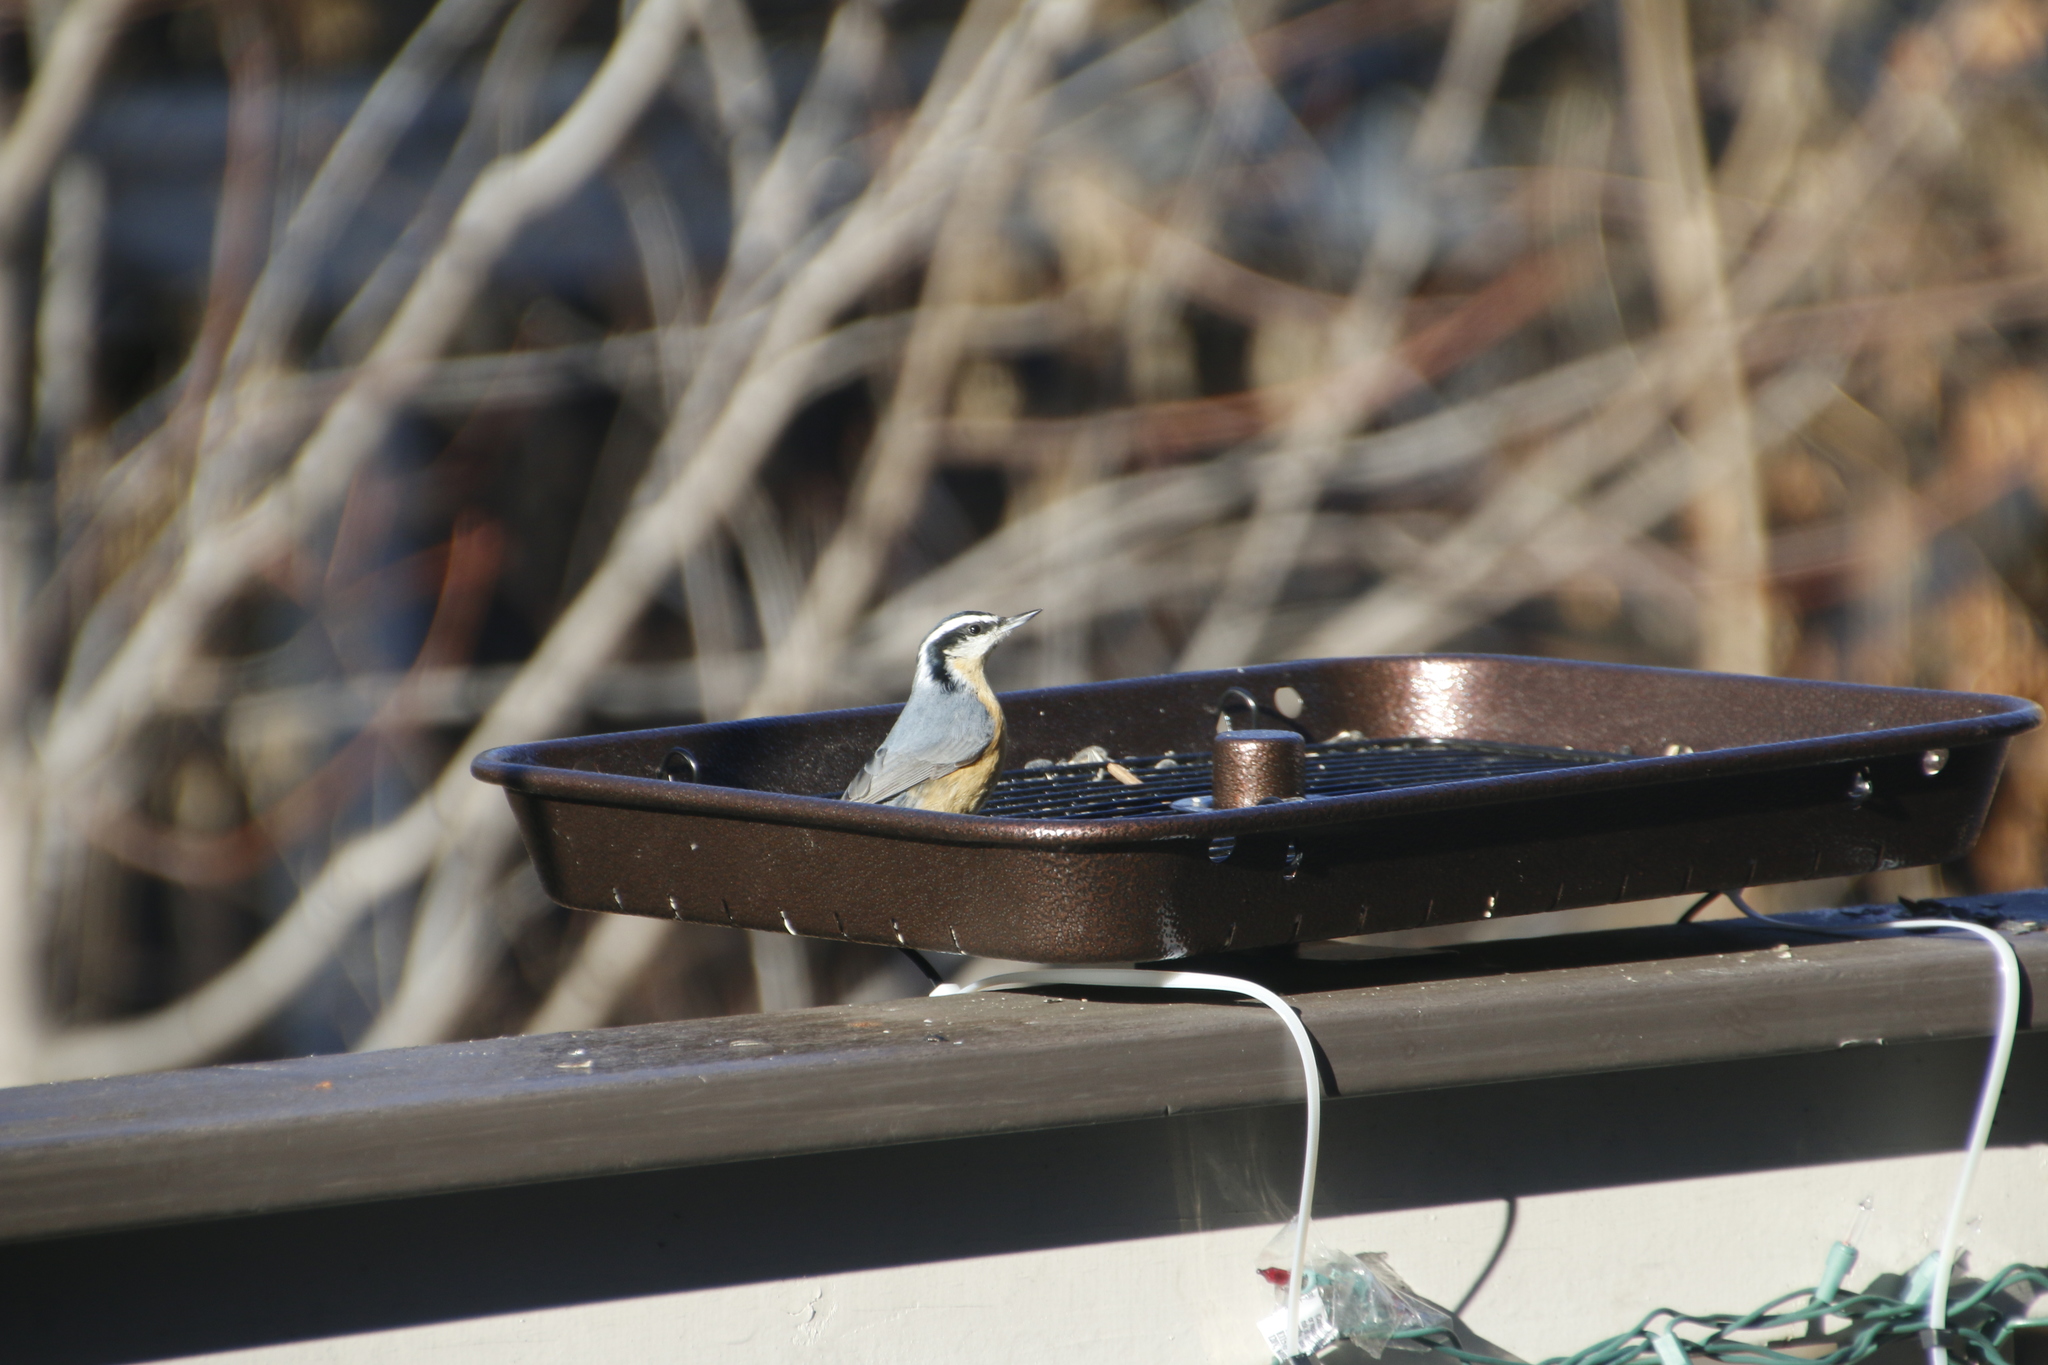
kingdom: Animalia
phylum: Chordata
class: Aves
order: Passeriformes
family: Sittidae
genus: Sitta
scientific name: Sitta canadensis
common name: Red-breasted nuthatch
